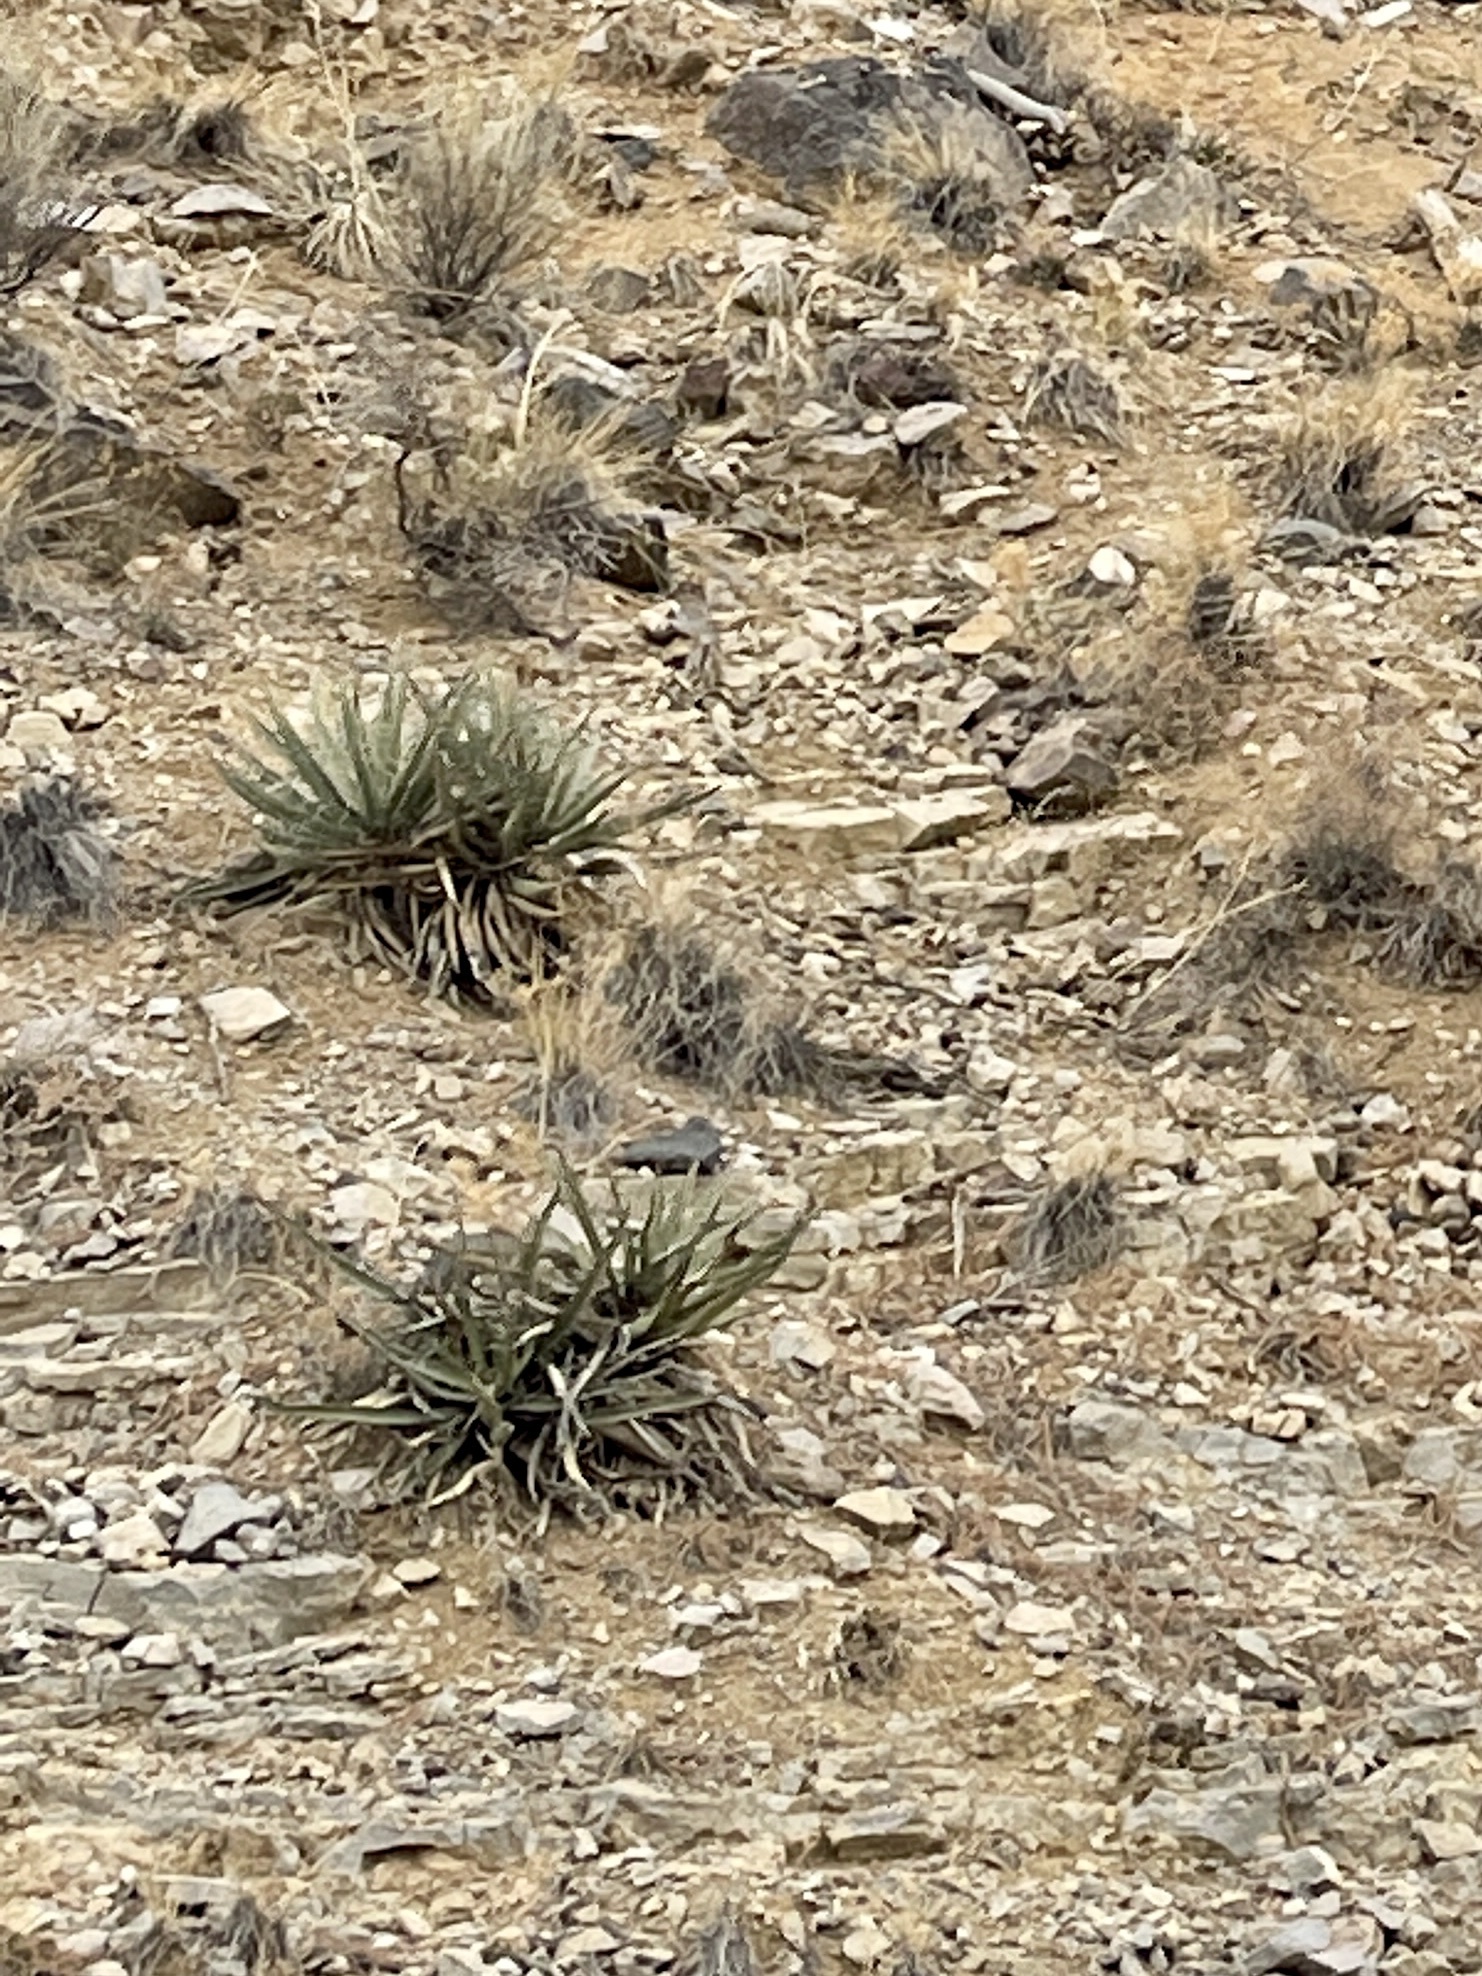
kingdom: Plantae
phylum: Tracheophyta
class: Liliopsida
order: Asparagales
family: Asparagaceae
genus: Yucca
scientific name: Yucca baccata
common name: Banana yucca
